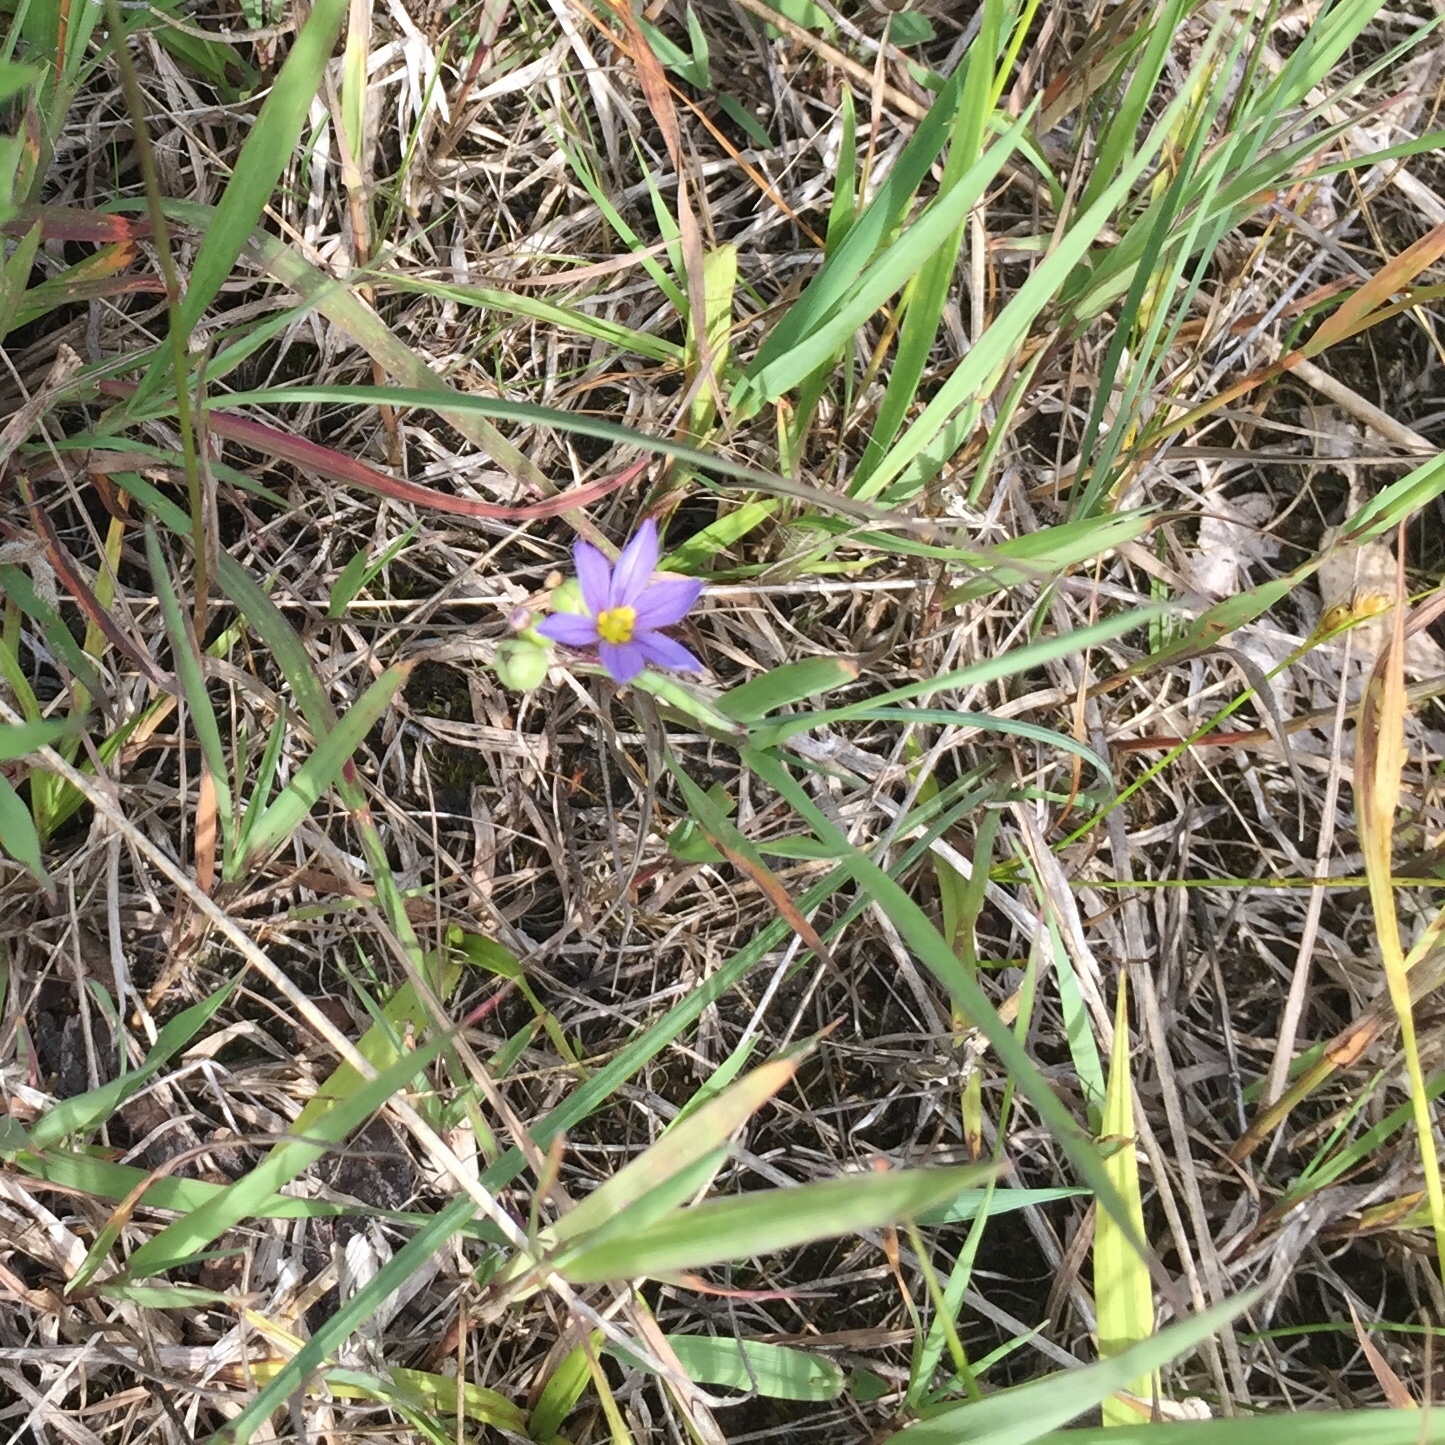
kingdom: Plantae
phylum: Tracheophyta
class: Liliopsida
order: Asparagales
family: Iridaceae
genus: Sisyrinchium
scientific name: Sisyrinchium montanum
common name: American blue-eyed-grass
